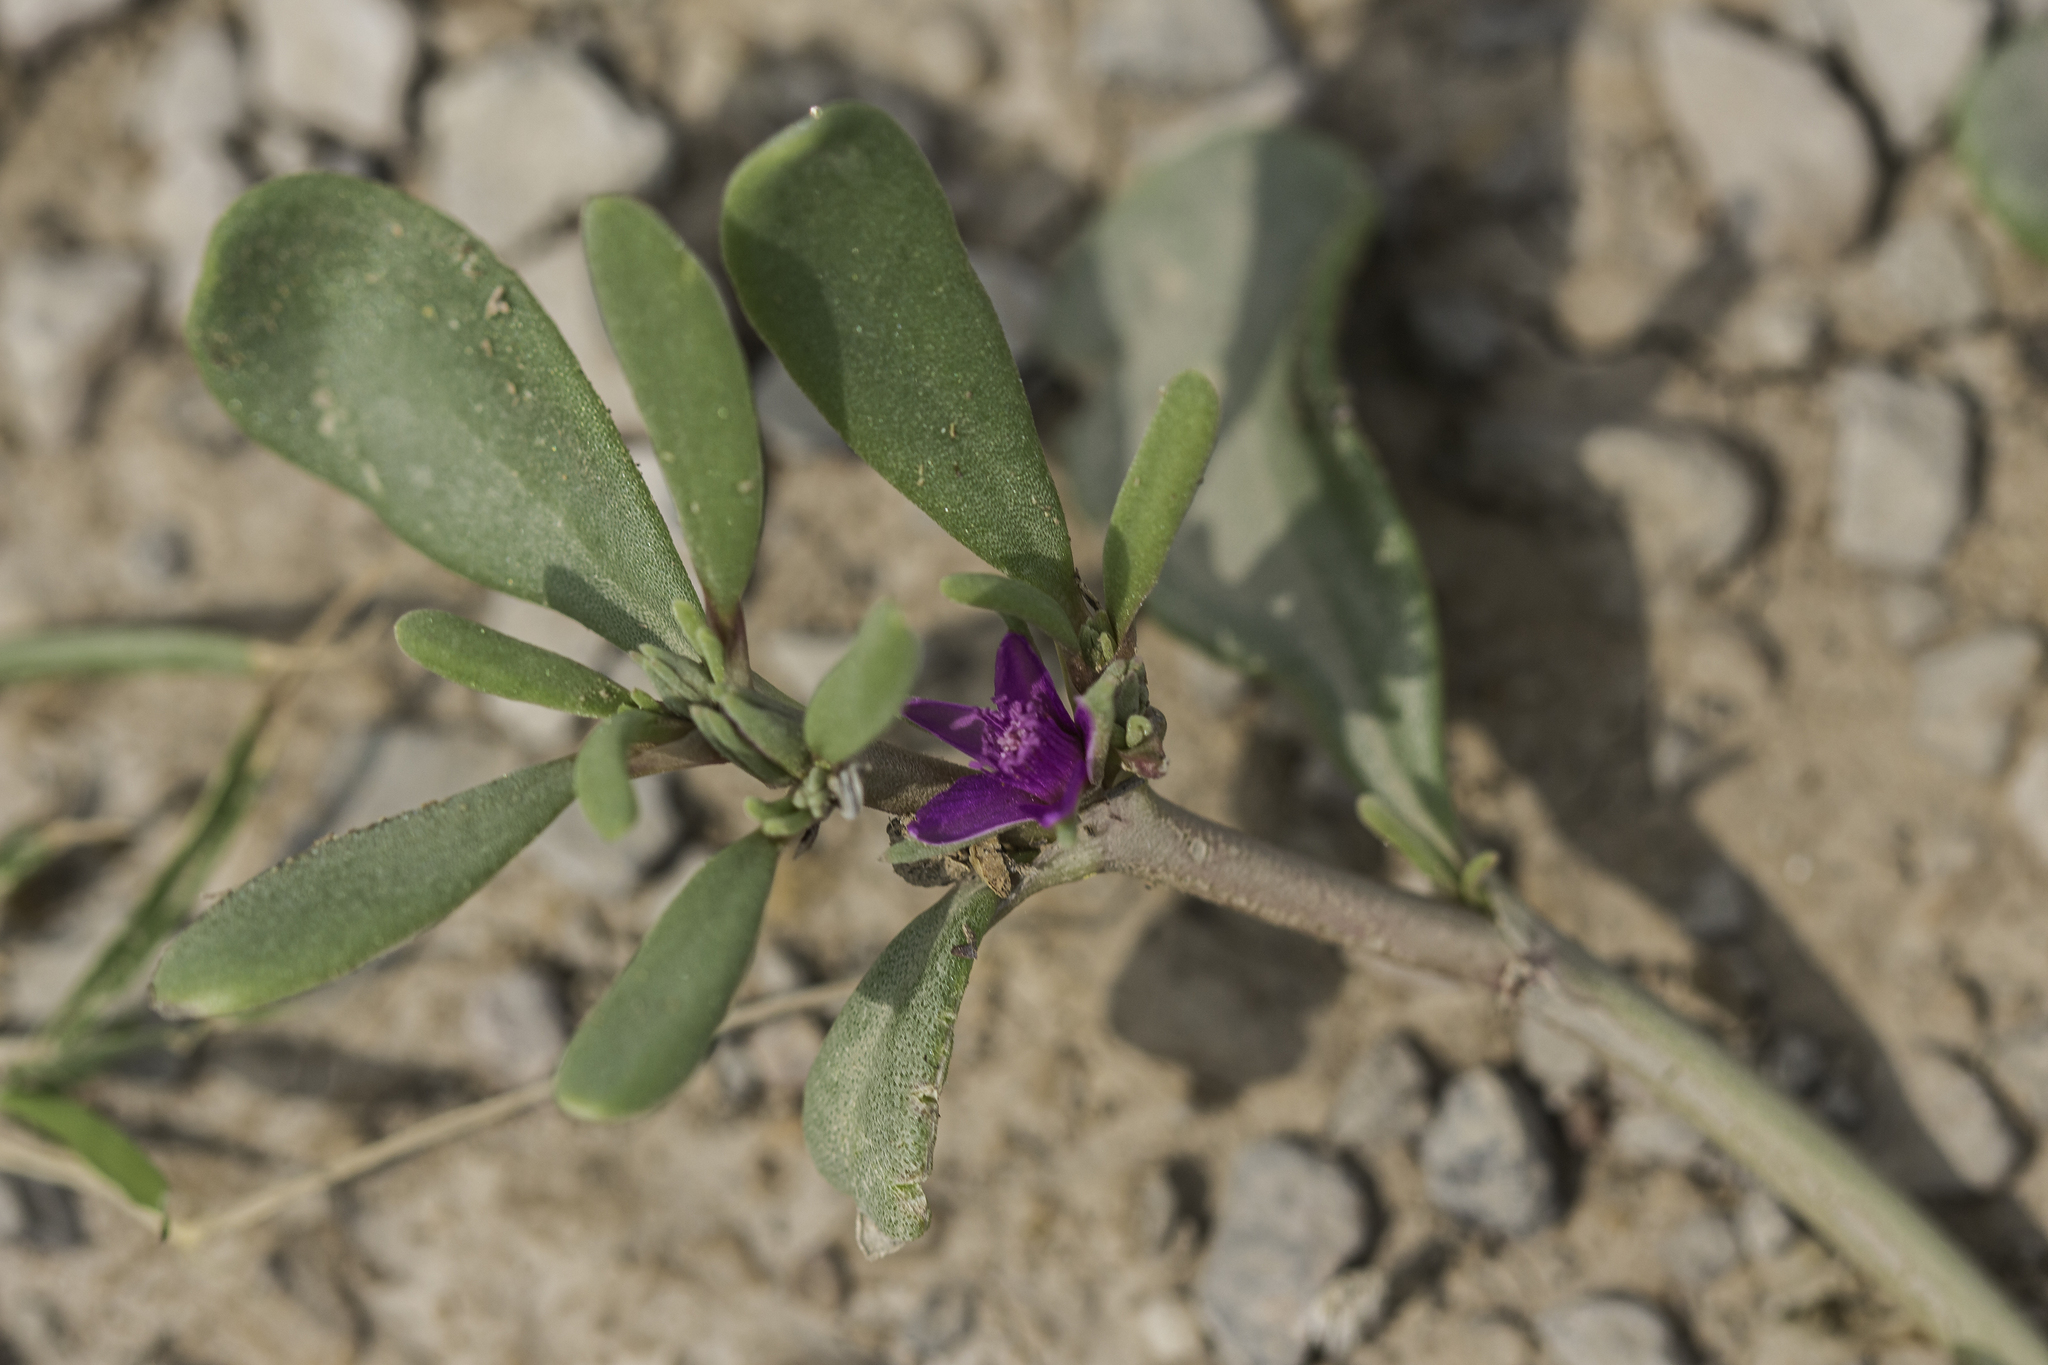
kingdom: Plantae
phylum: Tracheophyta
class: Magnoliopsida
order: Caryophyllales
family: Aizoaceae
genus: Sesuvium
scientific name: Sesuvium revolutifolium
